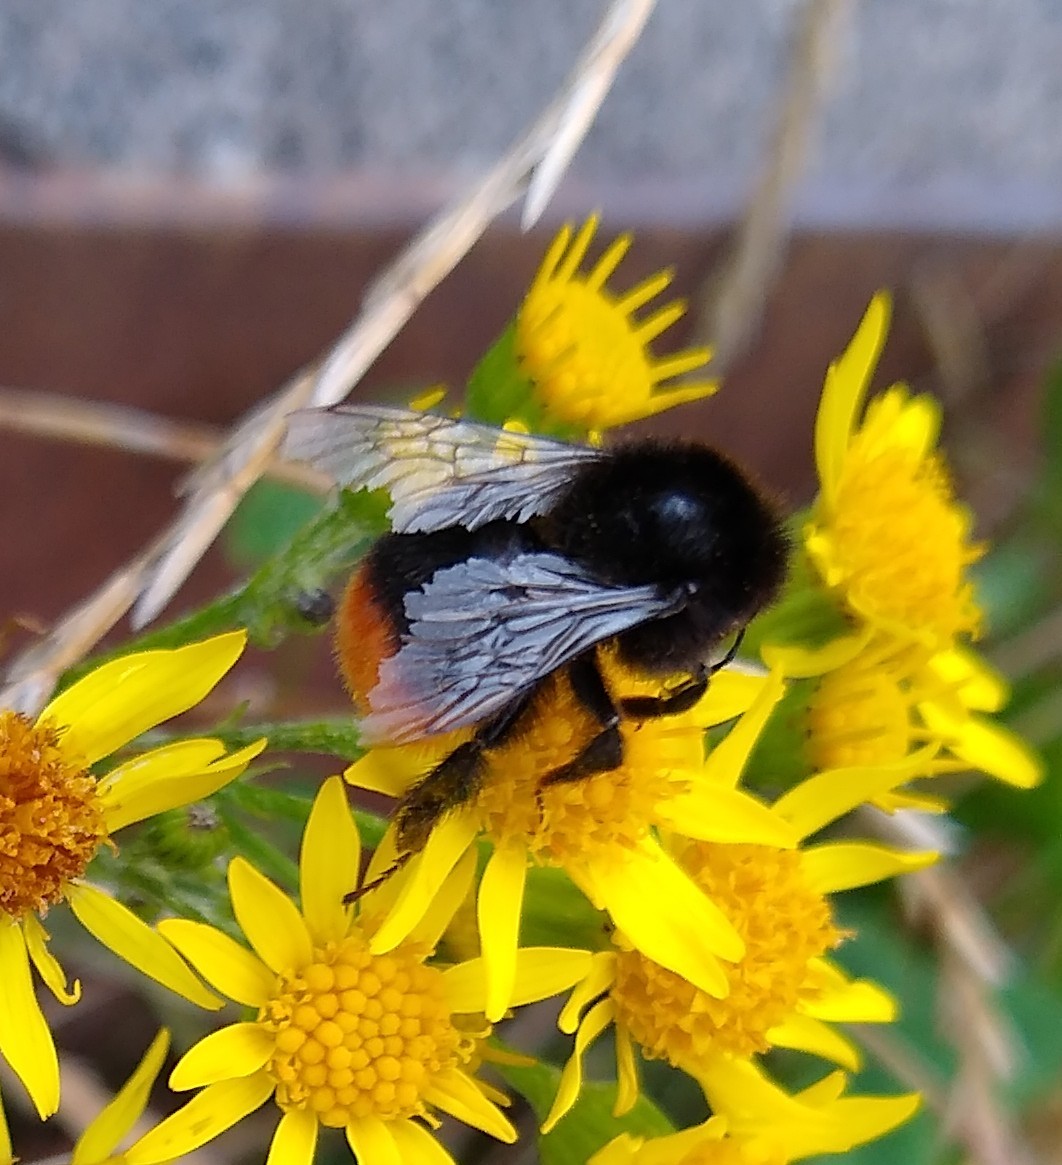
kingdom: Animalia
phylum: Arthropoda
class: Insecta
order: Hymenoptera
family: Apidae
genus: Bombus
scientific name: Bombus lapidarius
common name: Large red-tailed humble-bee
